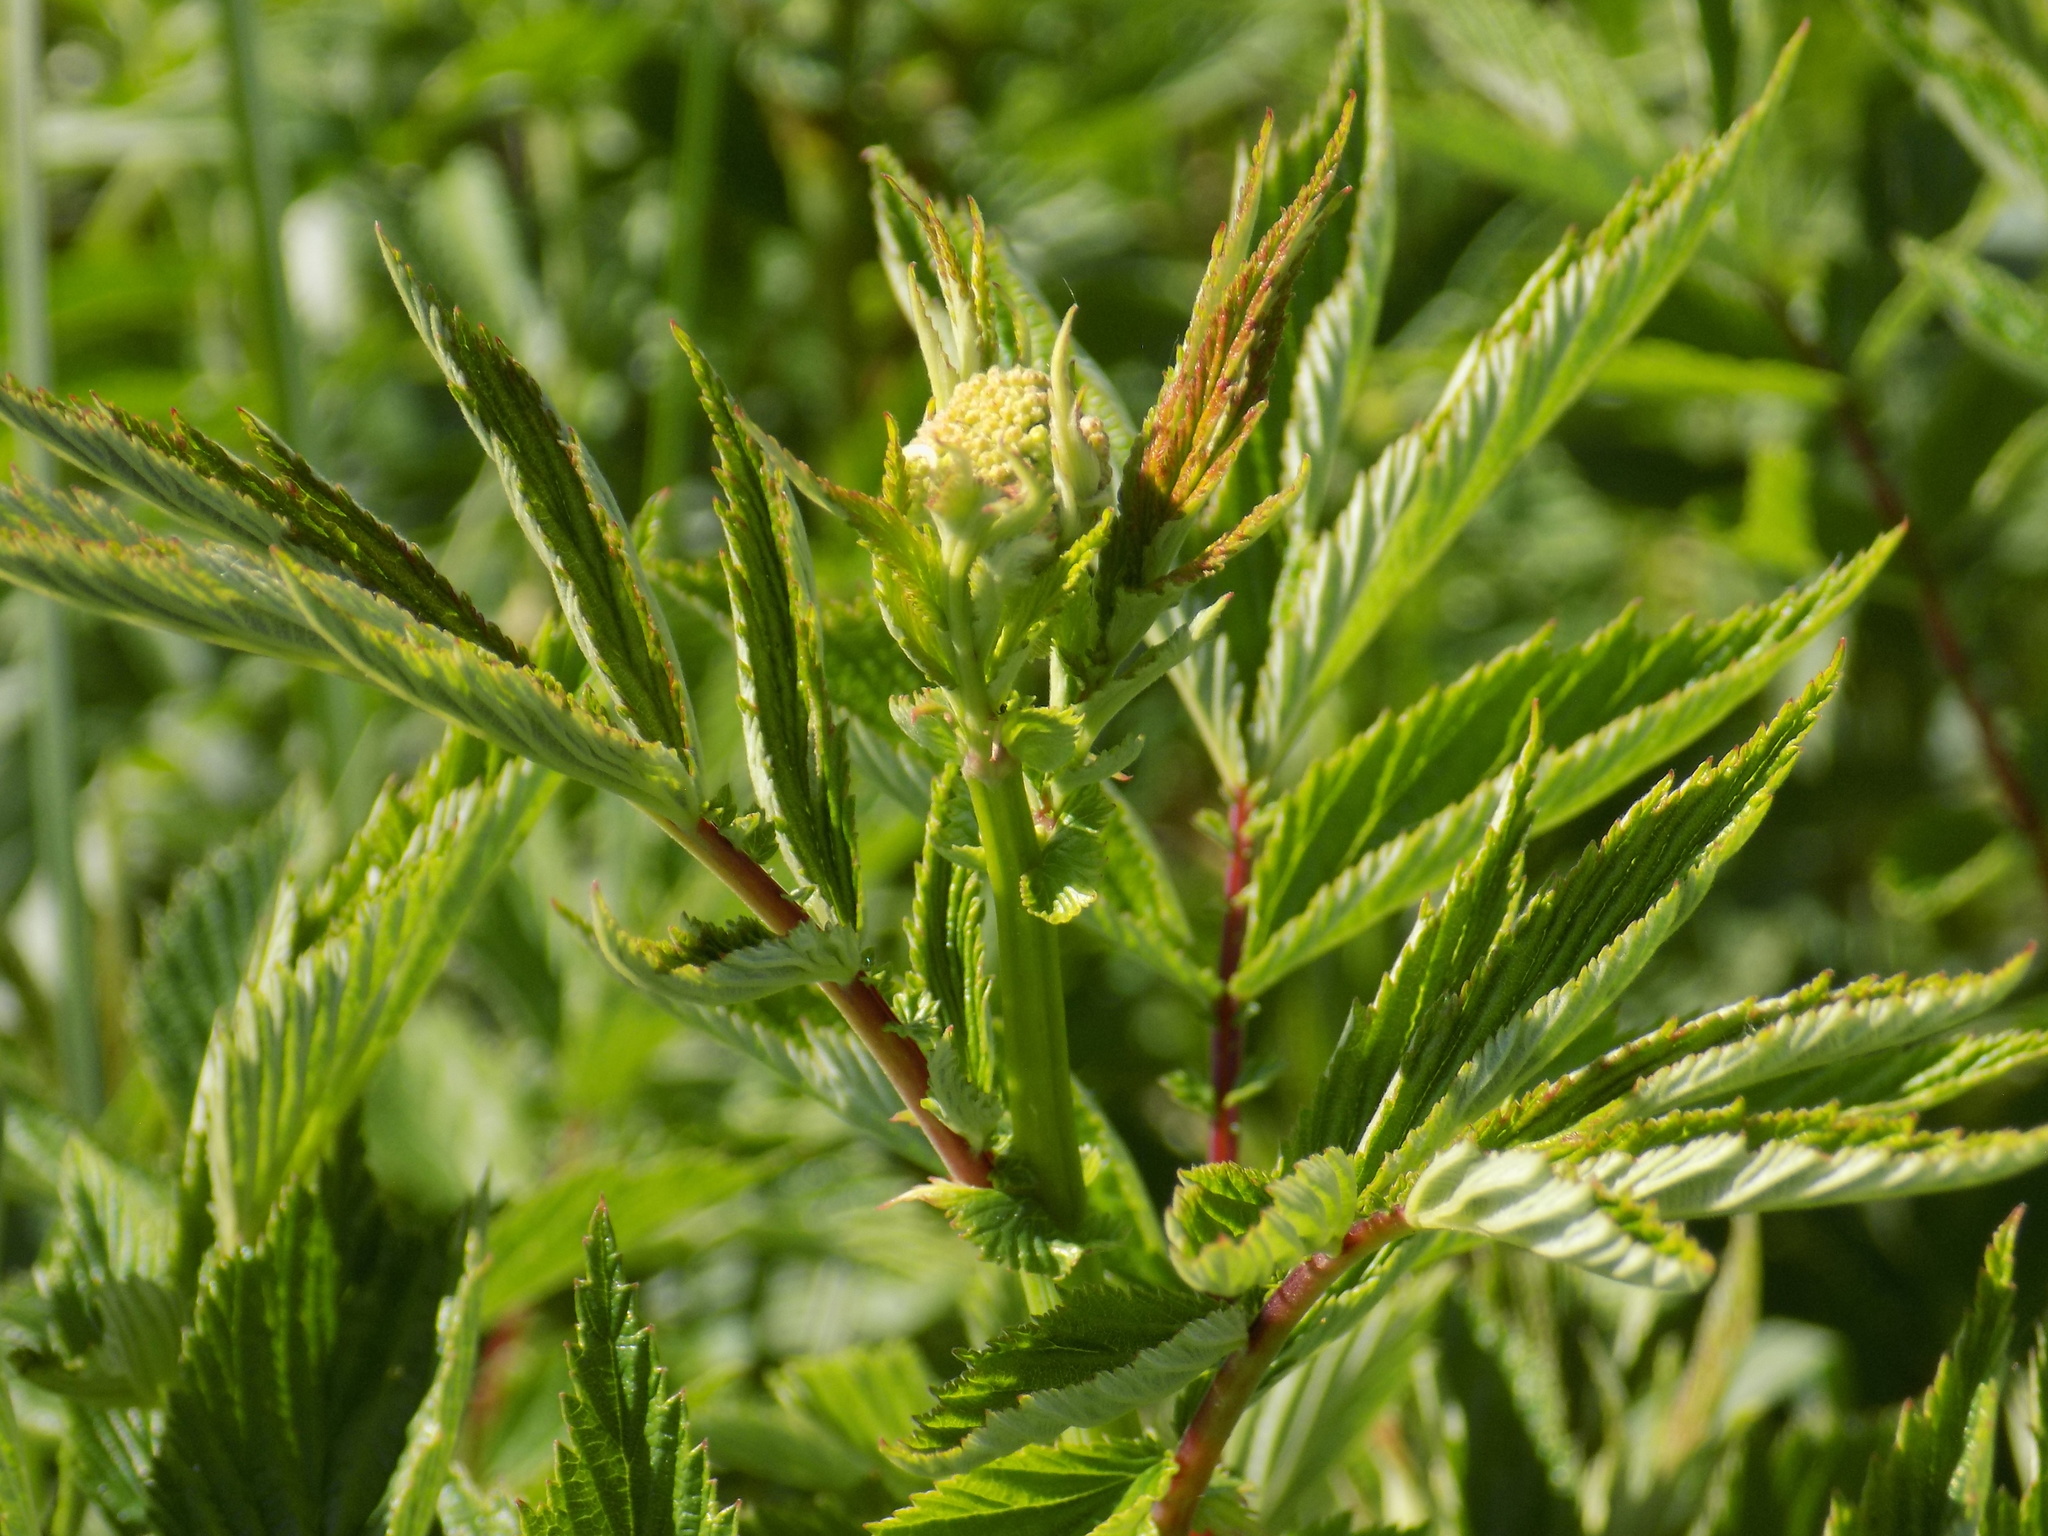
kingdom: Plantae
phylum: Tracheophyta
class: Magnoliopsida
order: Rosales
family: Rosaceae
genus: Filipendula
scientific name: Filipendula ulmaria
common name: Meadowsweet
